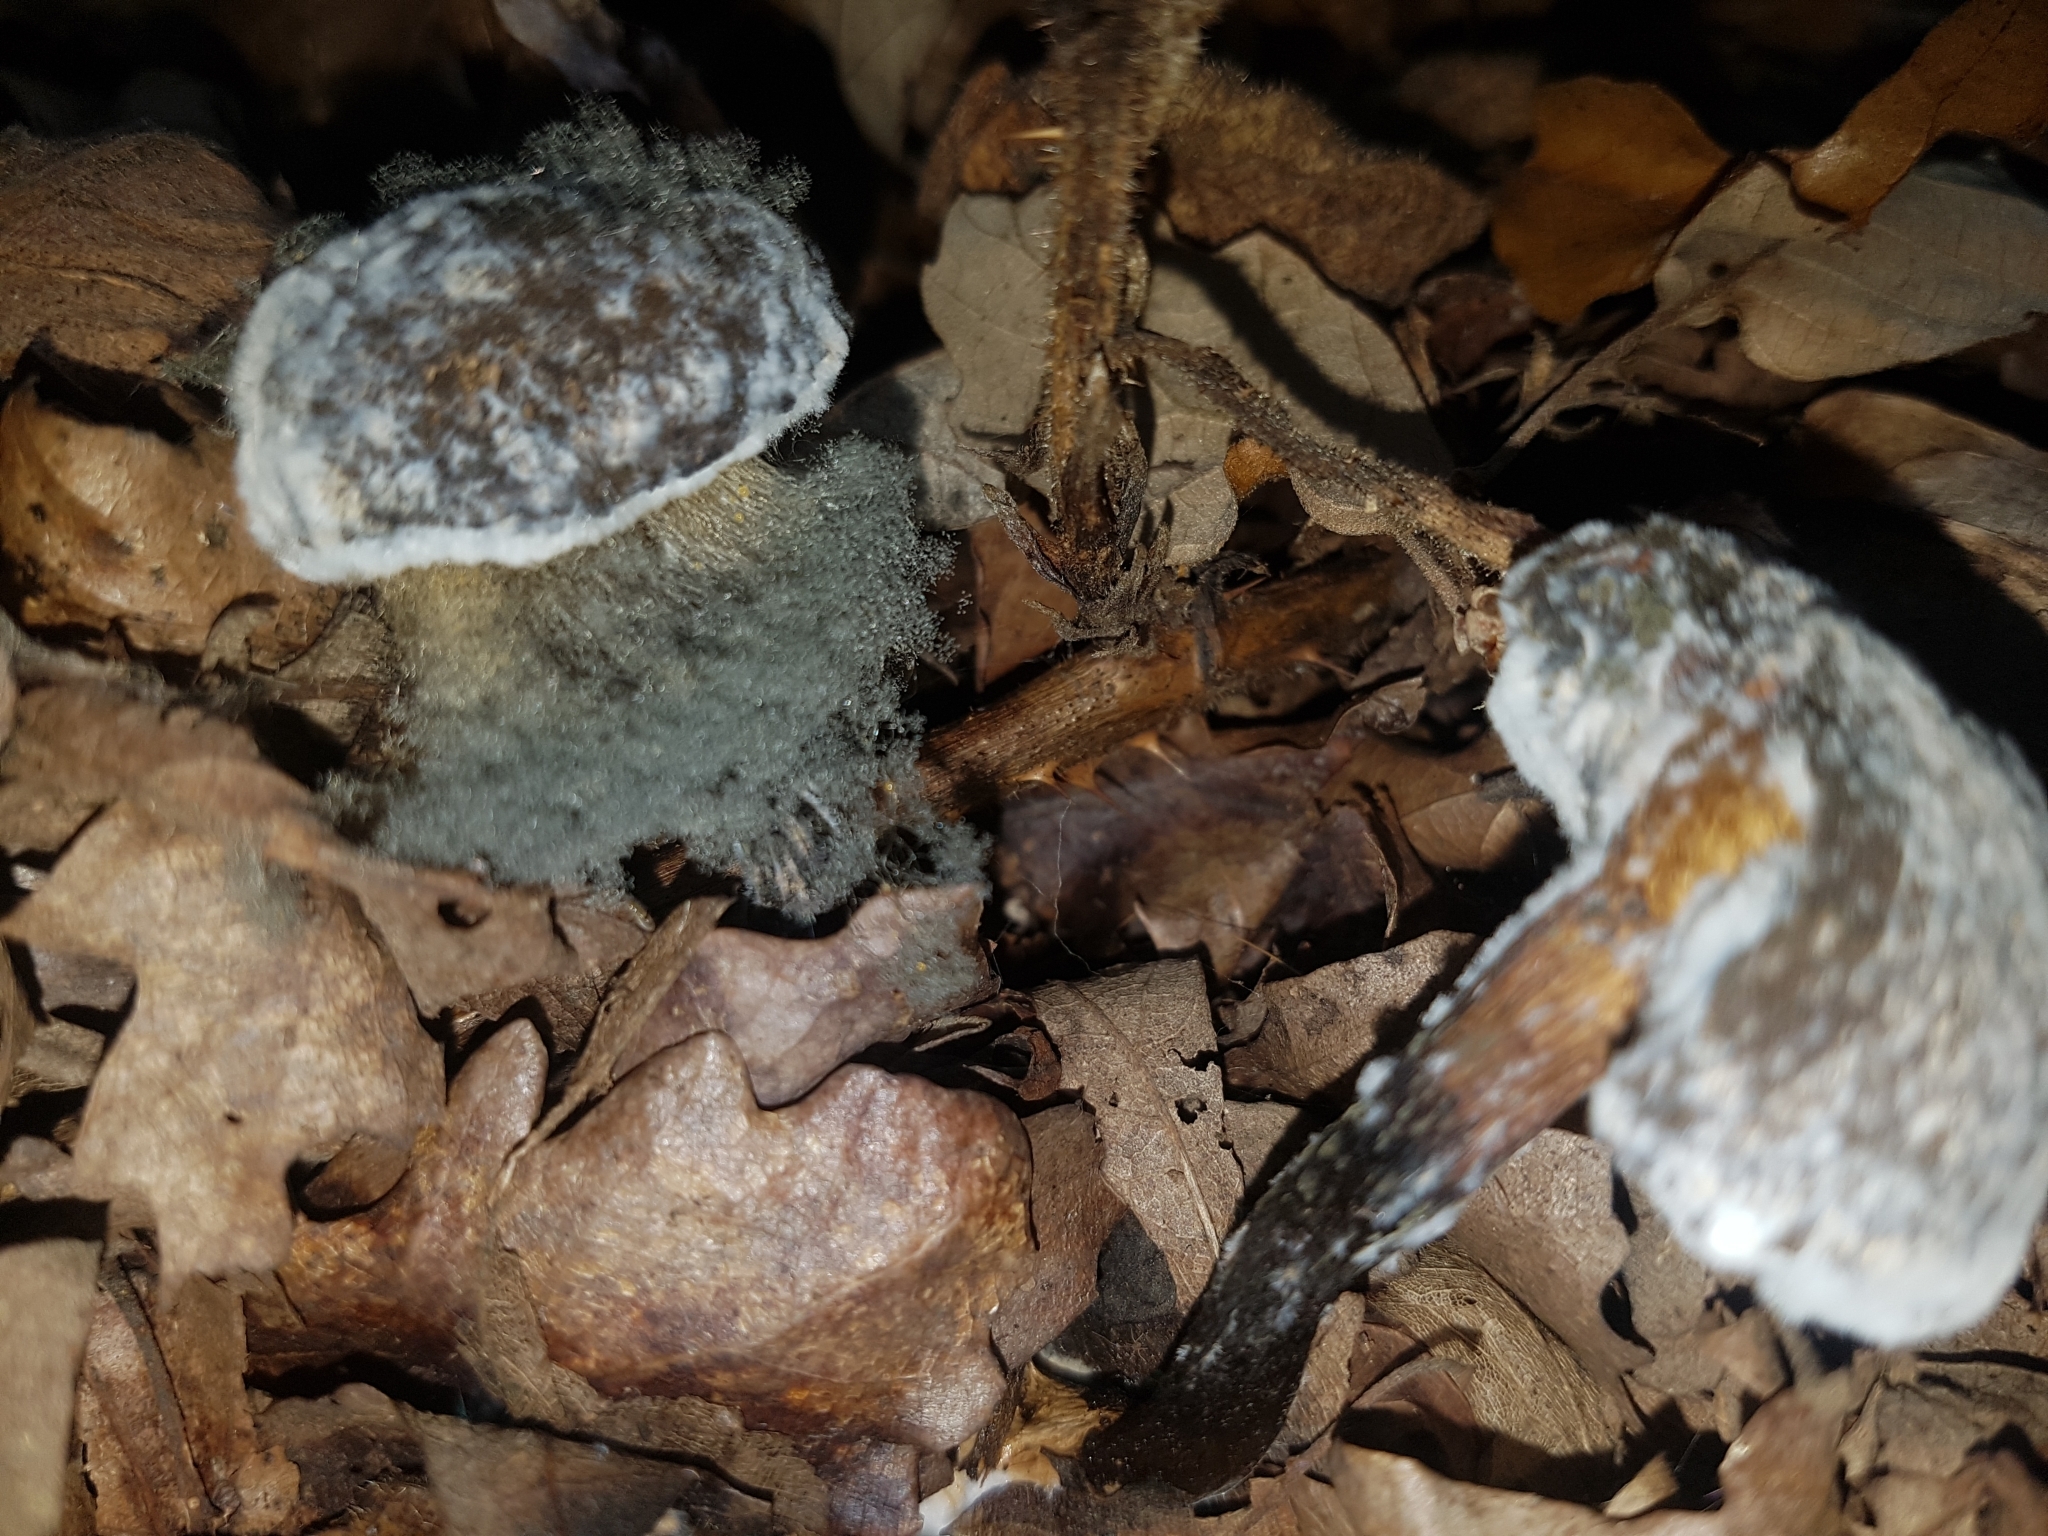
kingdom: Fungi
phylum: Mucoromycota
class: Mucoromycetes
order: Mucorales
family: Rhizopodaceae
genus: Syzygites
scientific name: Syzygites megalocarpus
